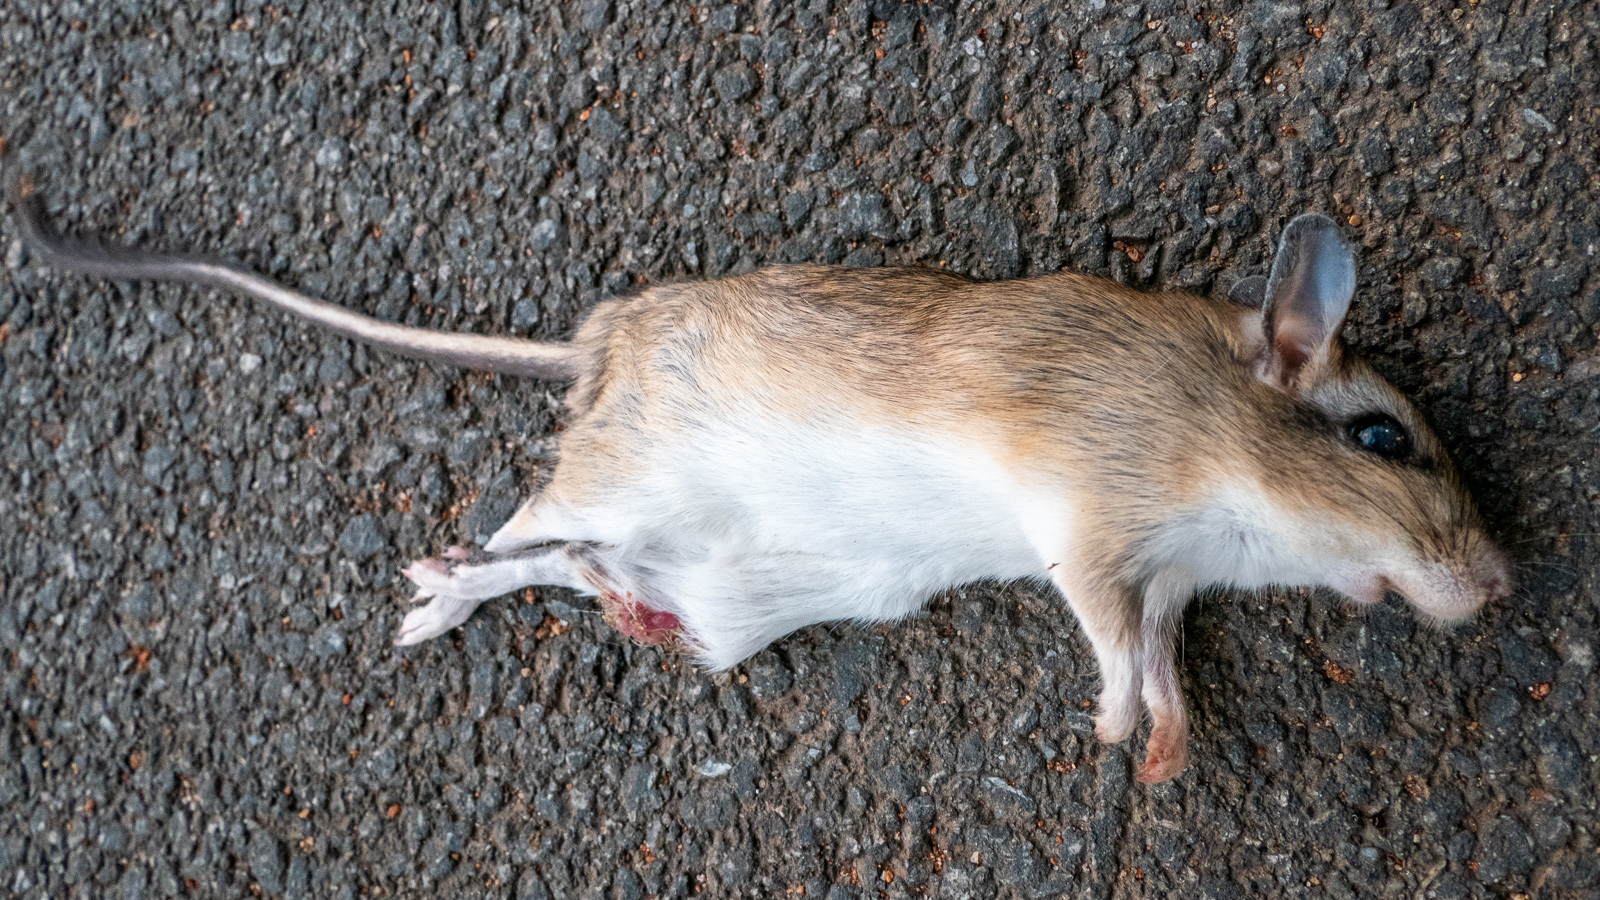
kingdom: Animalia
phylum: Chordata
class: Mammalia
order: Rodentia
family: Muridae
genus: Tatera
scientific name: Tatera indica
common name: Indian gerbil
